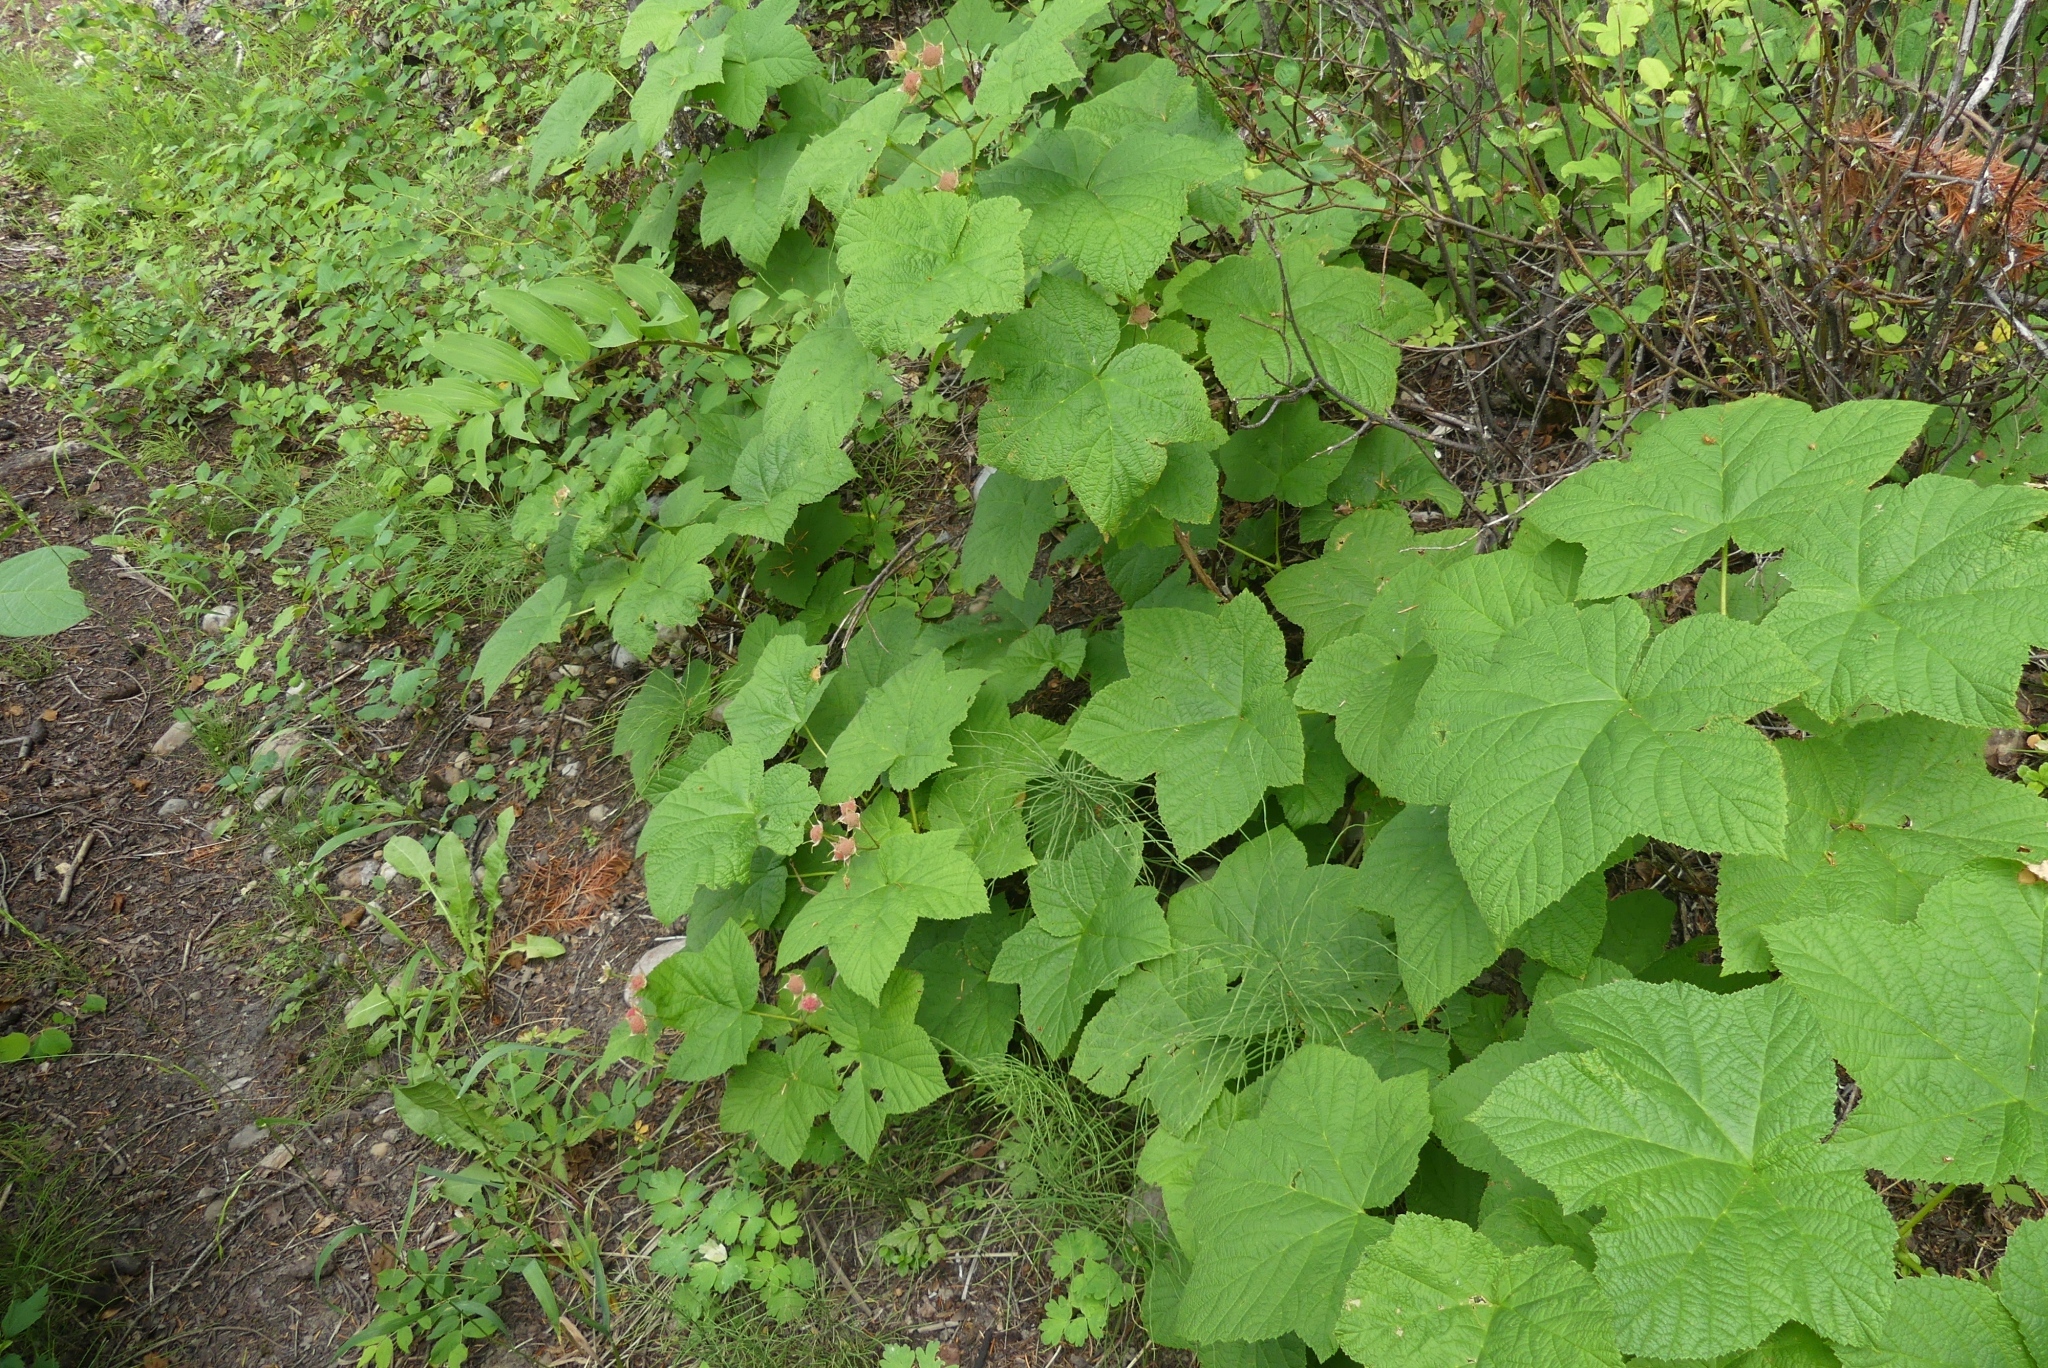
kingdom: Plantae
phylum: Tracheophyta
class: Magnoliopsida
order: Rosales
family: Rosaceae
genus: Rubus
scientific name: Rubus parviflorus
